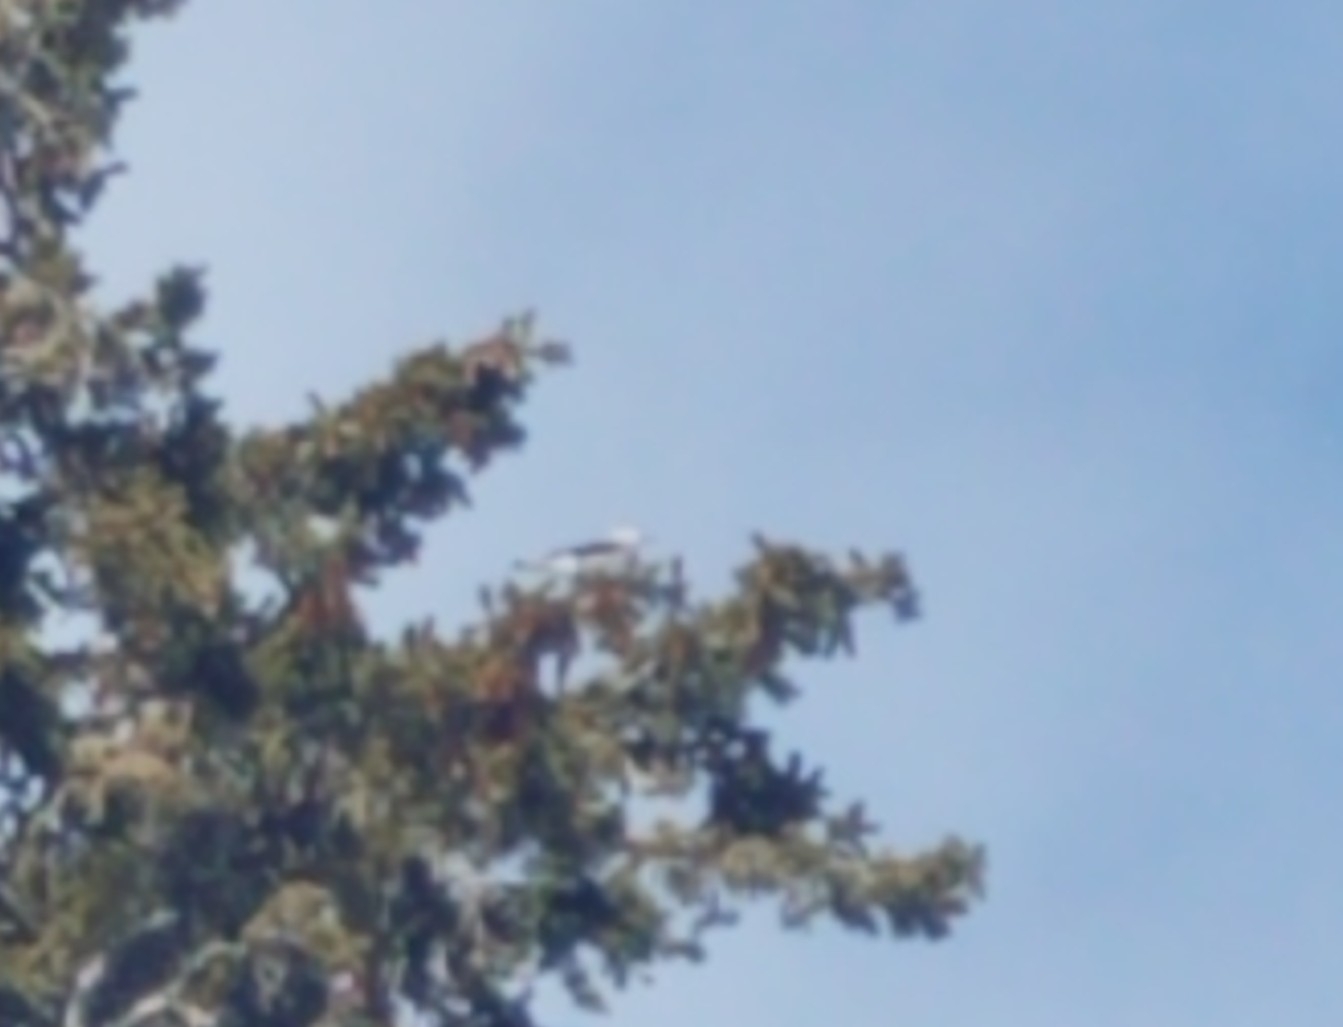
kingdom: Animalia
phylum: Chordata
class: Aves
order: Passeriformes
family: Corvidae
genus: Nucifraga
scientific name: Nucifraga columbiana
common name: Clark's nutcracker
